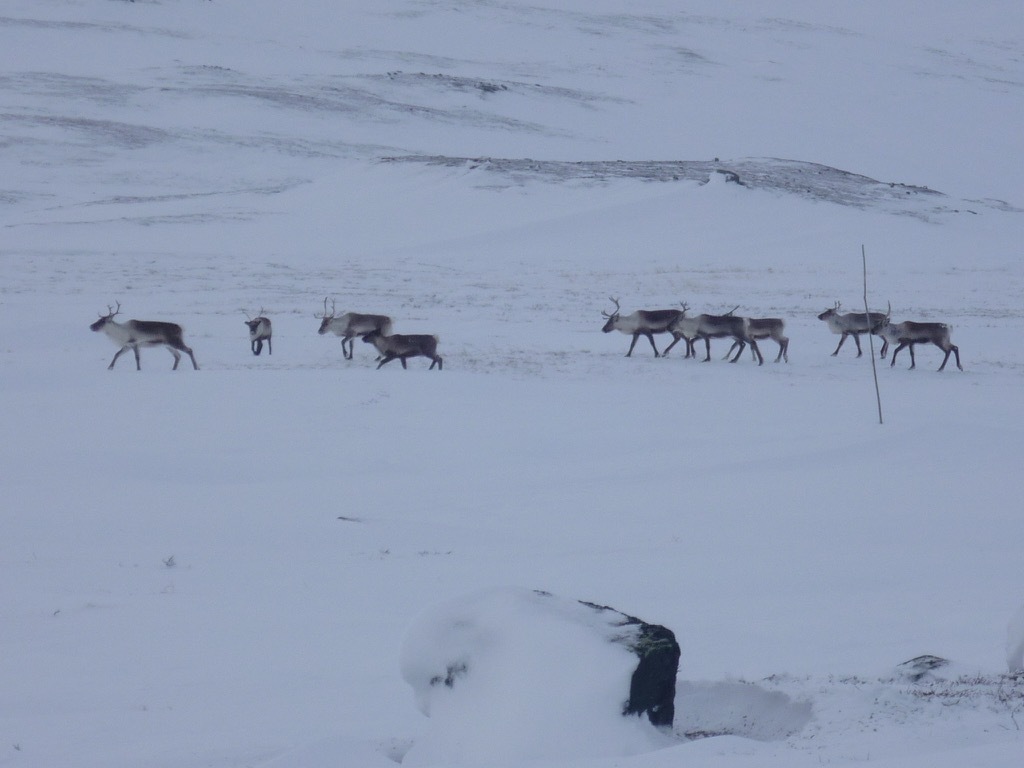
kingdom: Animalia
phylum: Chordata
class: Mammalia
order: Artiodactyla
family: Cervidae
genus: Rangifer
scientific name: Rangifer tarandus
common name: Reindeer
